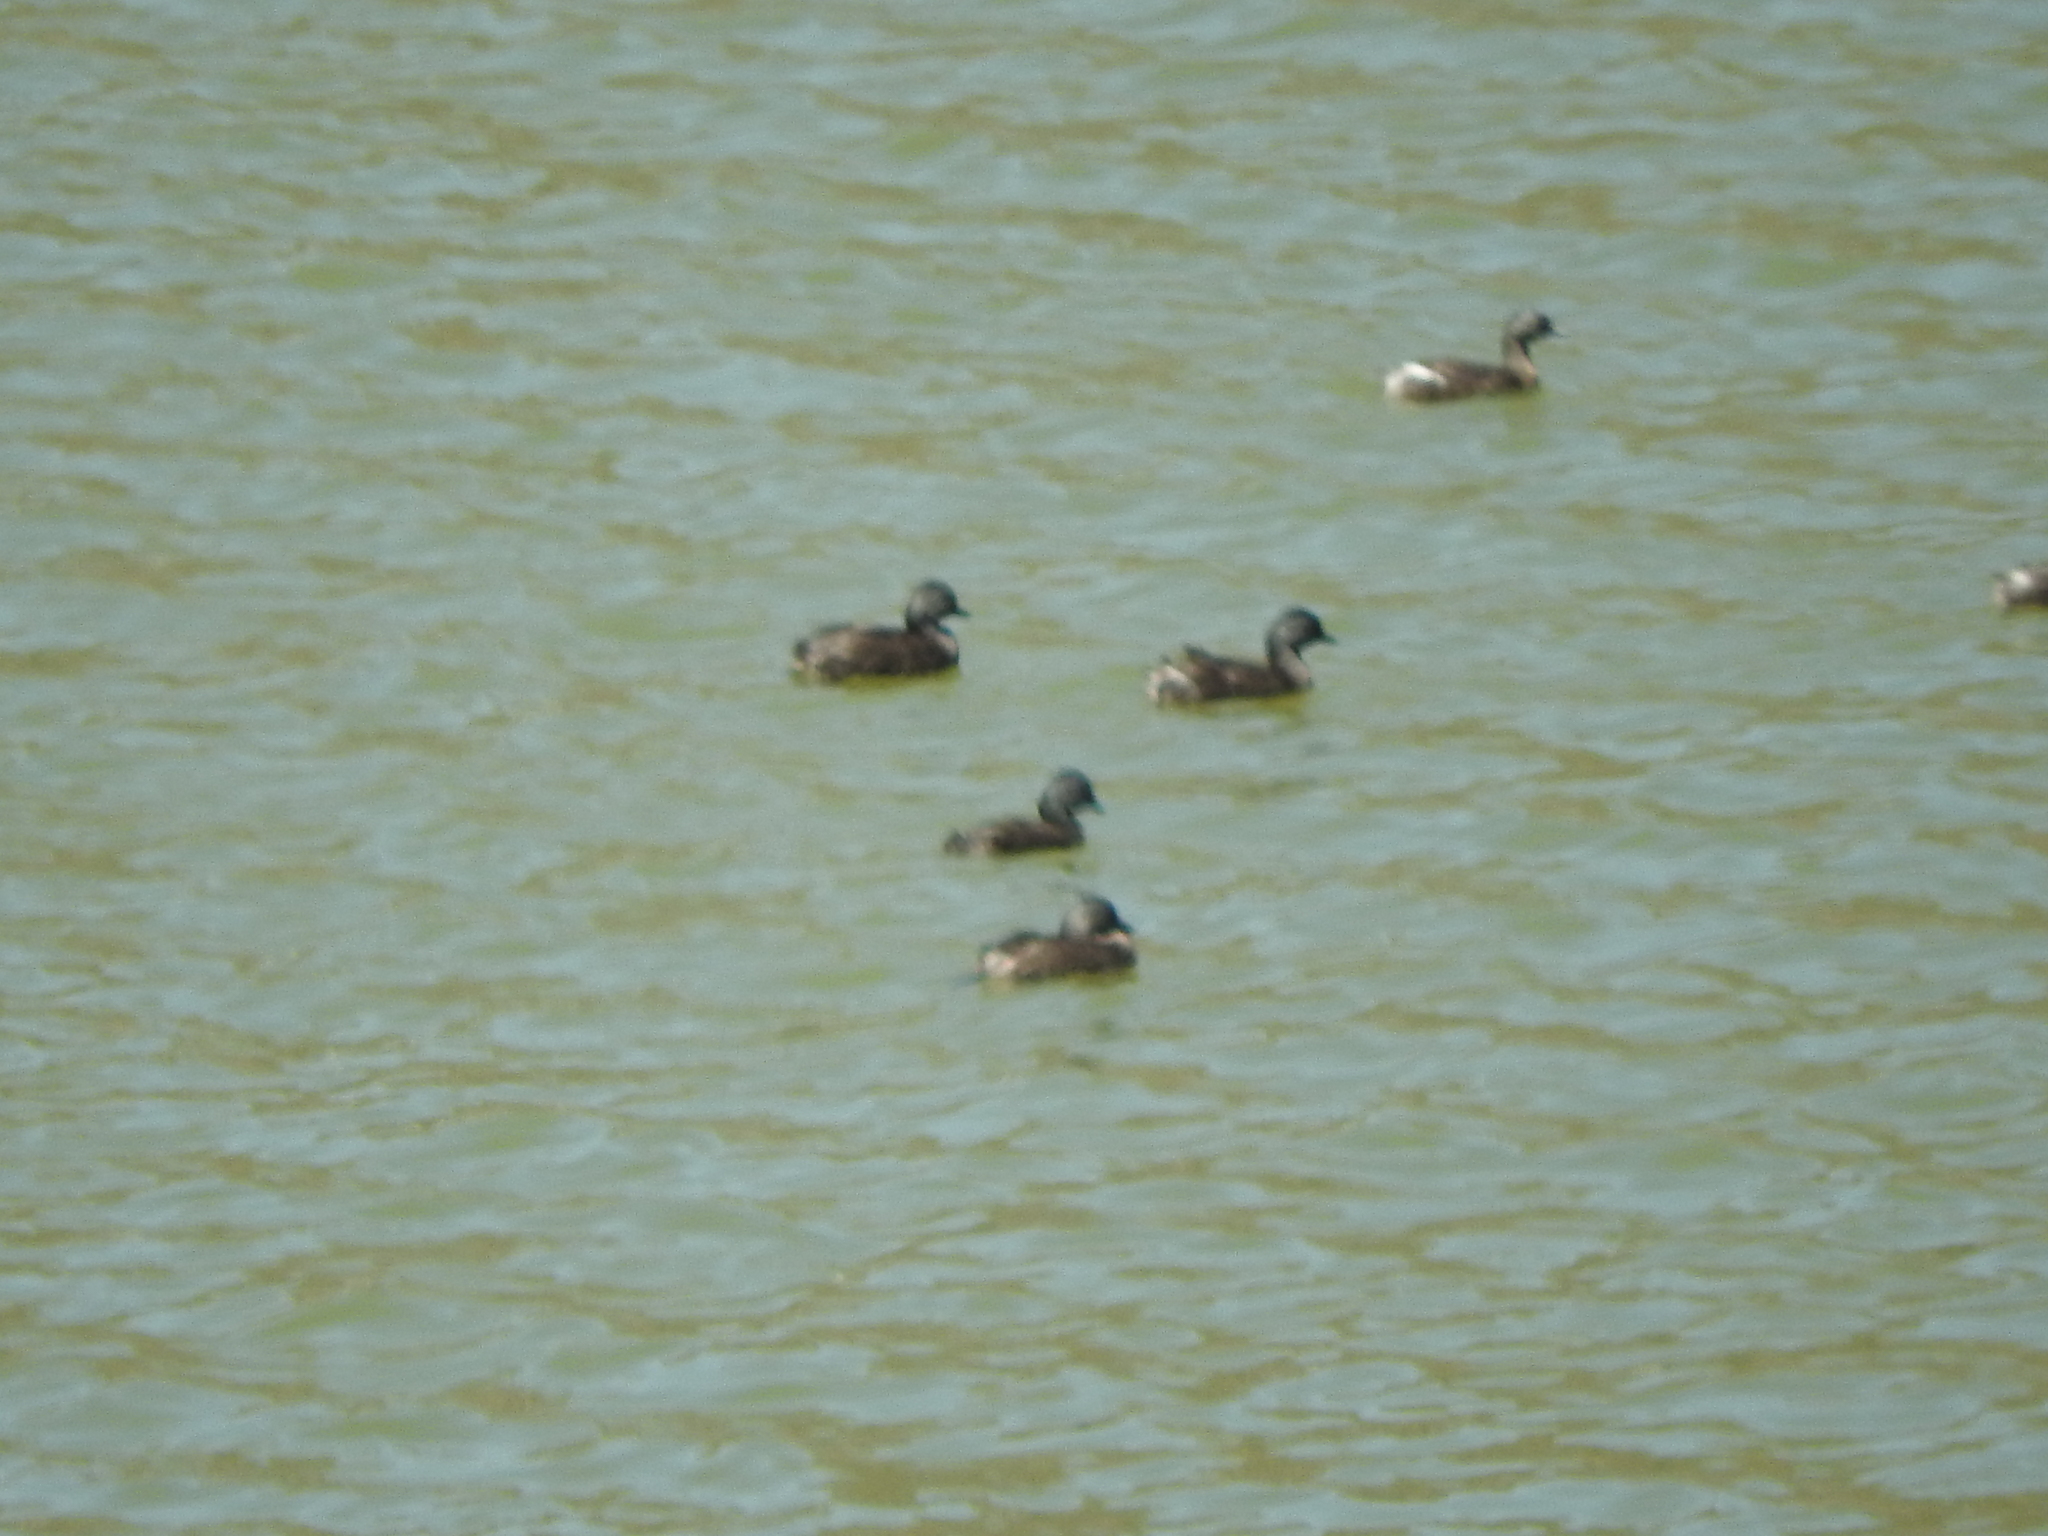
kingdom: Animalia
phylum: Chordata
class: Aves
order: Podicipediformes
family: Podicipedidae
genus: Tachybaptus
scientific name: Tachybaptus dominicus
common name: Least grebe
